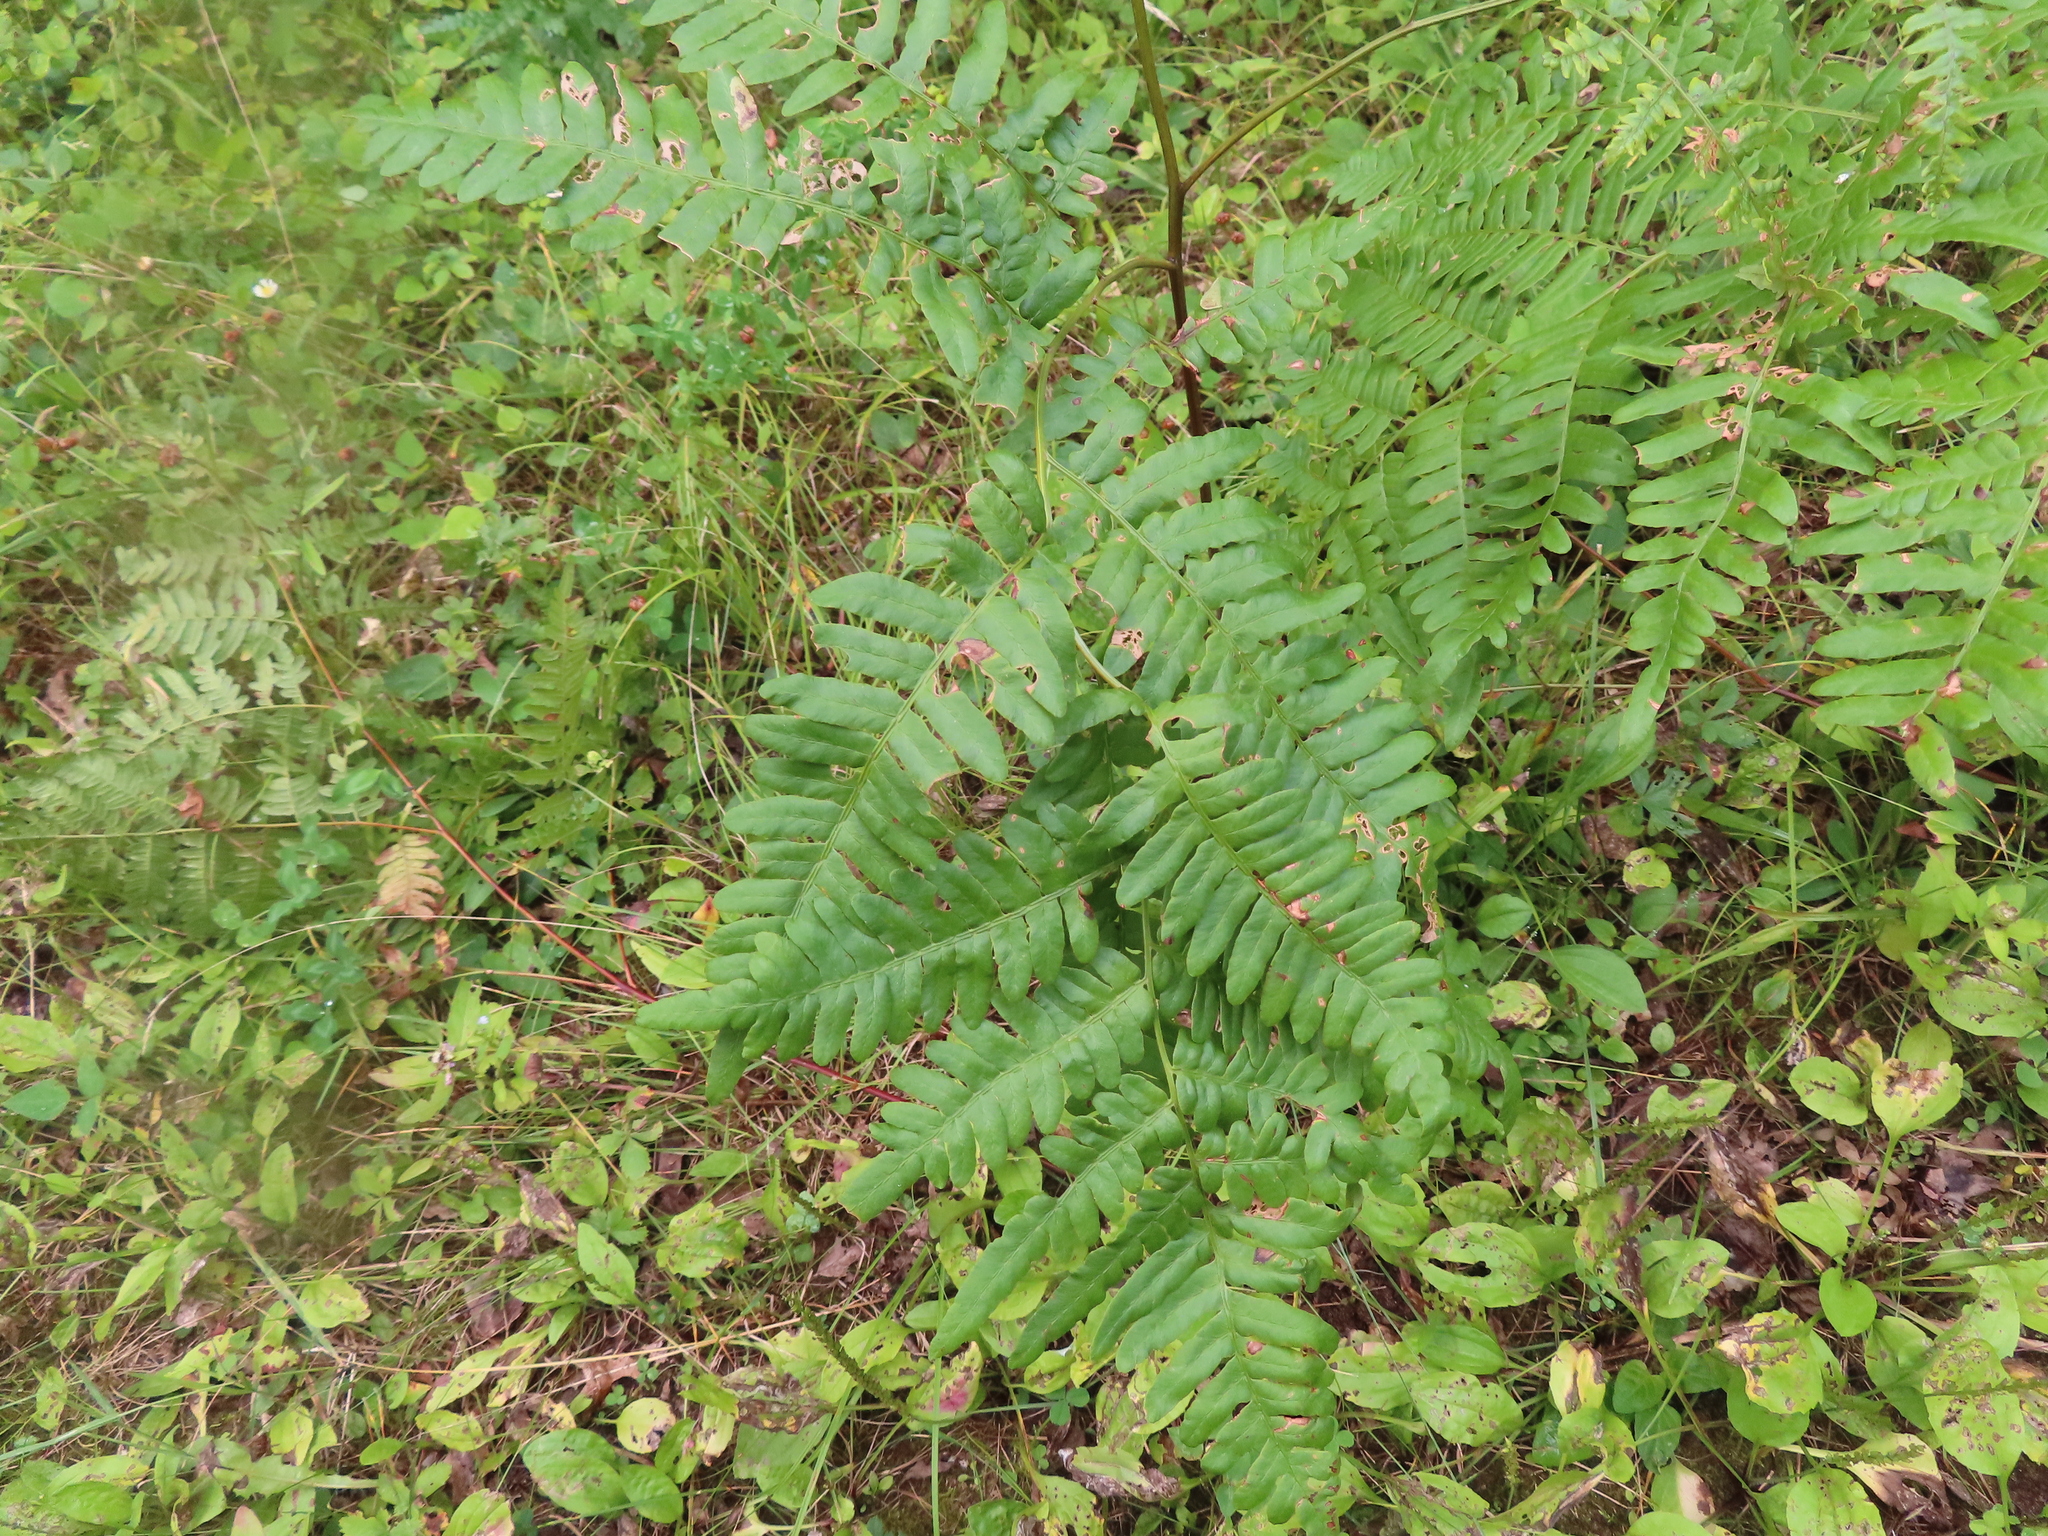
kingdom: Plantae
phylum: Tracheophyta
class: Polypodiopsida
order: Polypodiales
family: Dennstaedtiaceae
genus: Pteridium
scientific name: Pteridium aquilinum
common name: Bracken
